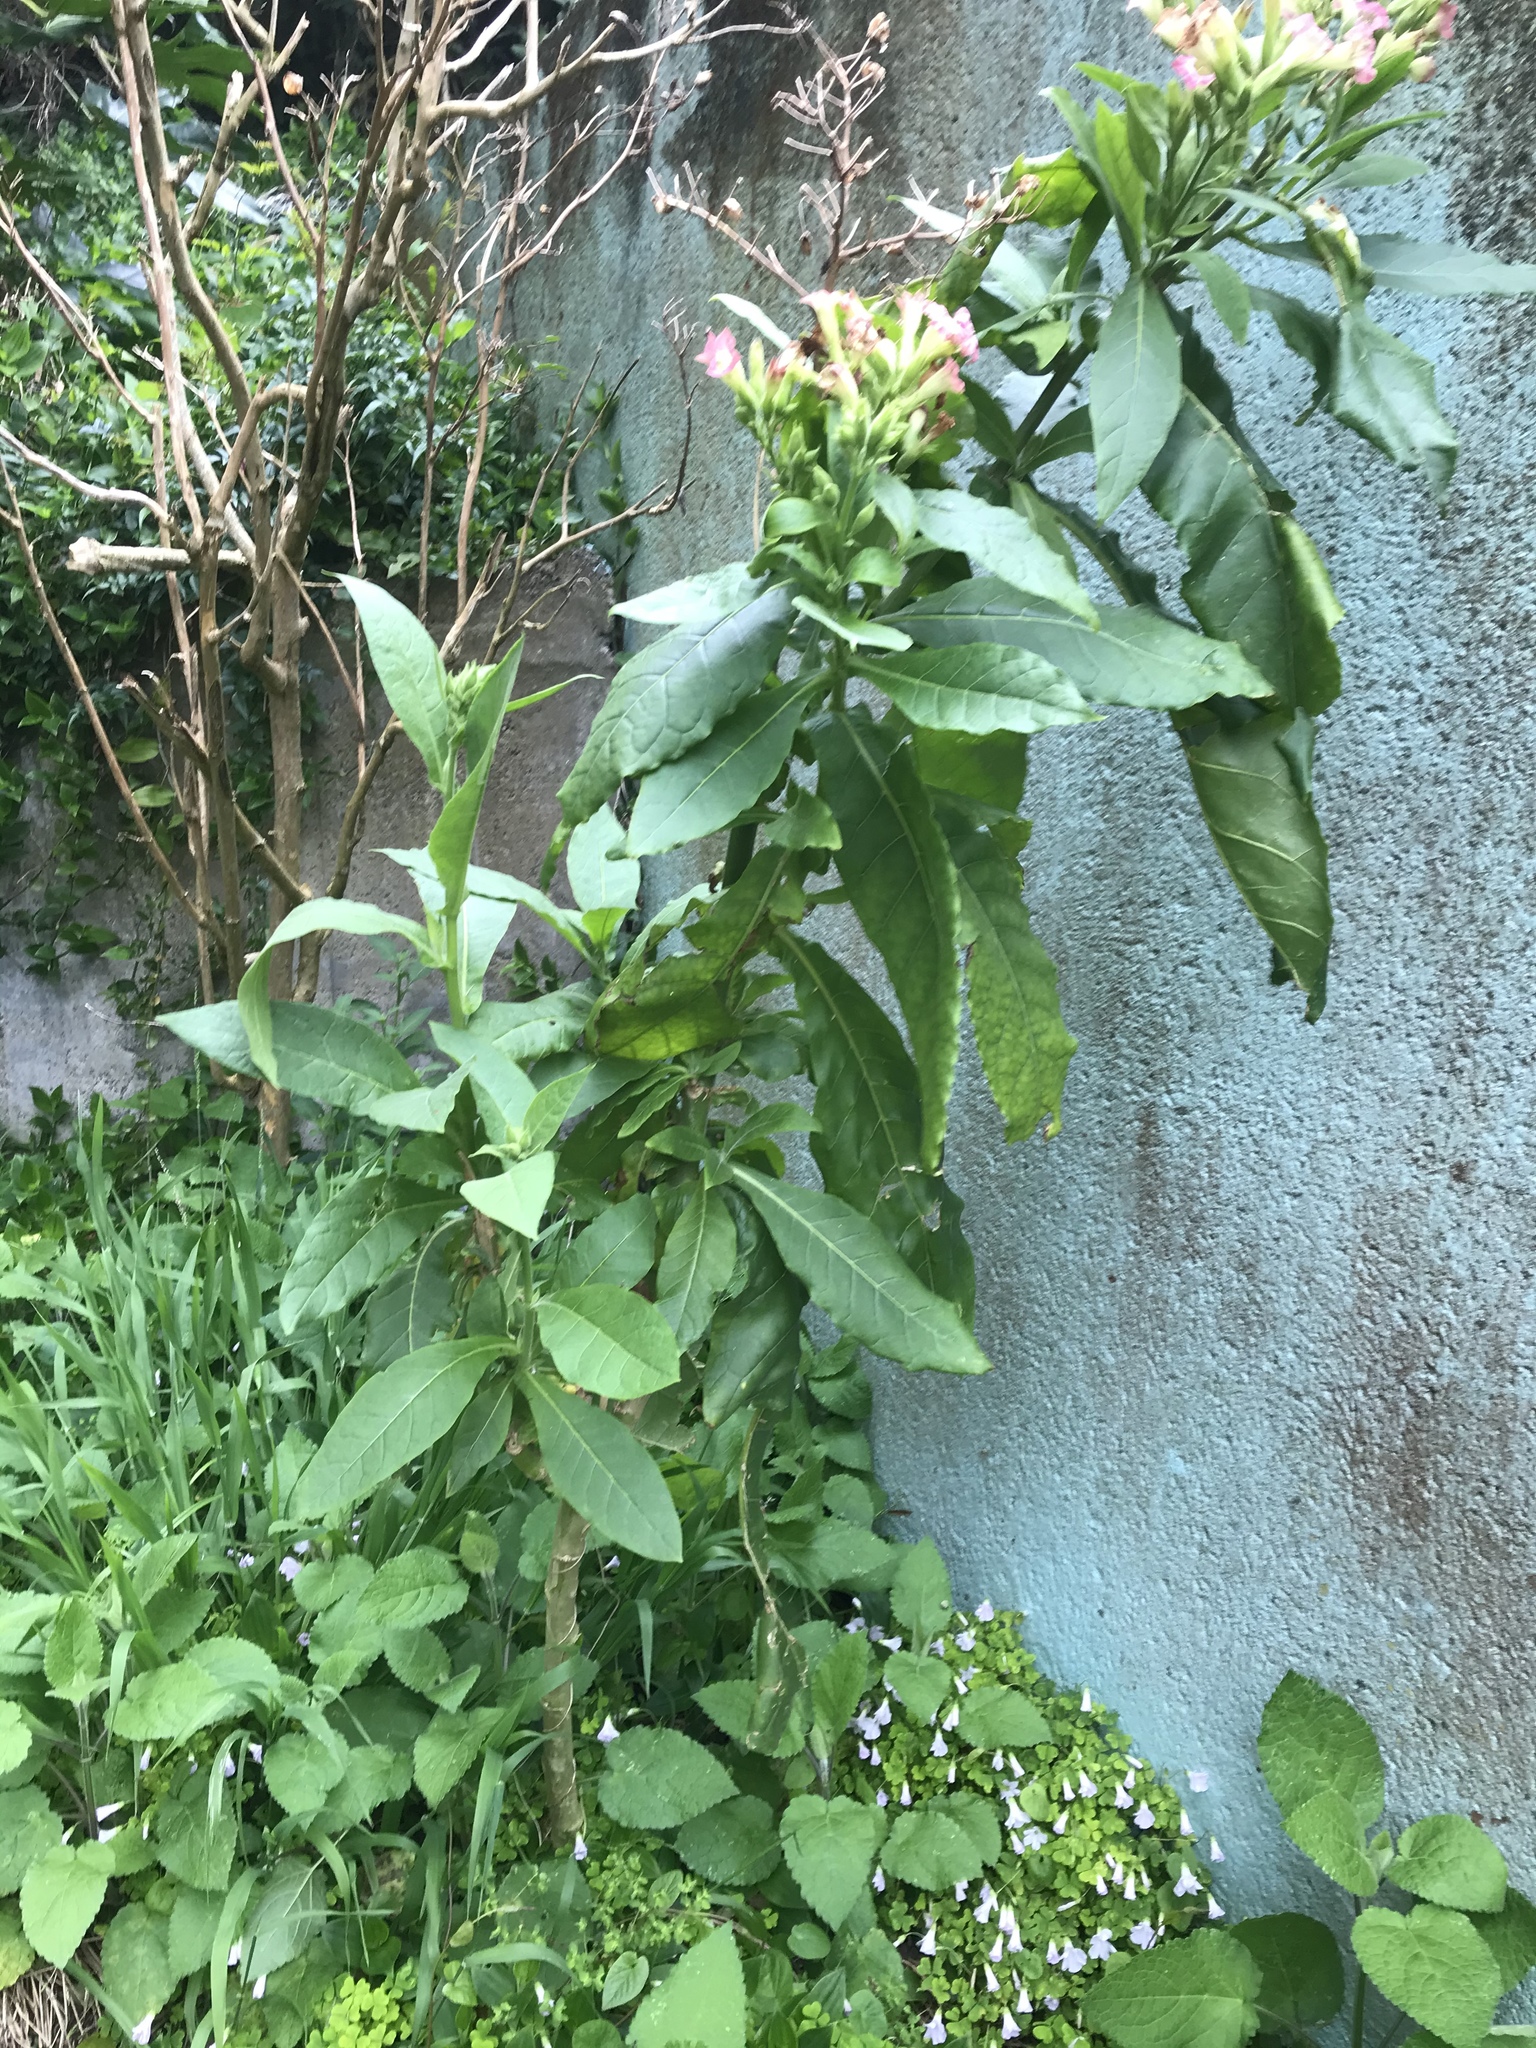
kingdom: Plantae
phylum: Tracheophyta
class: Magnoliopsida
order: Solanales
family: Solanaceae
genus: Nicotiana
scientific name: Nicotiana tabacum
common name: Tobacco
